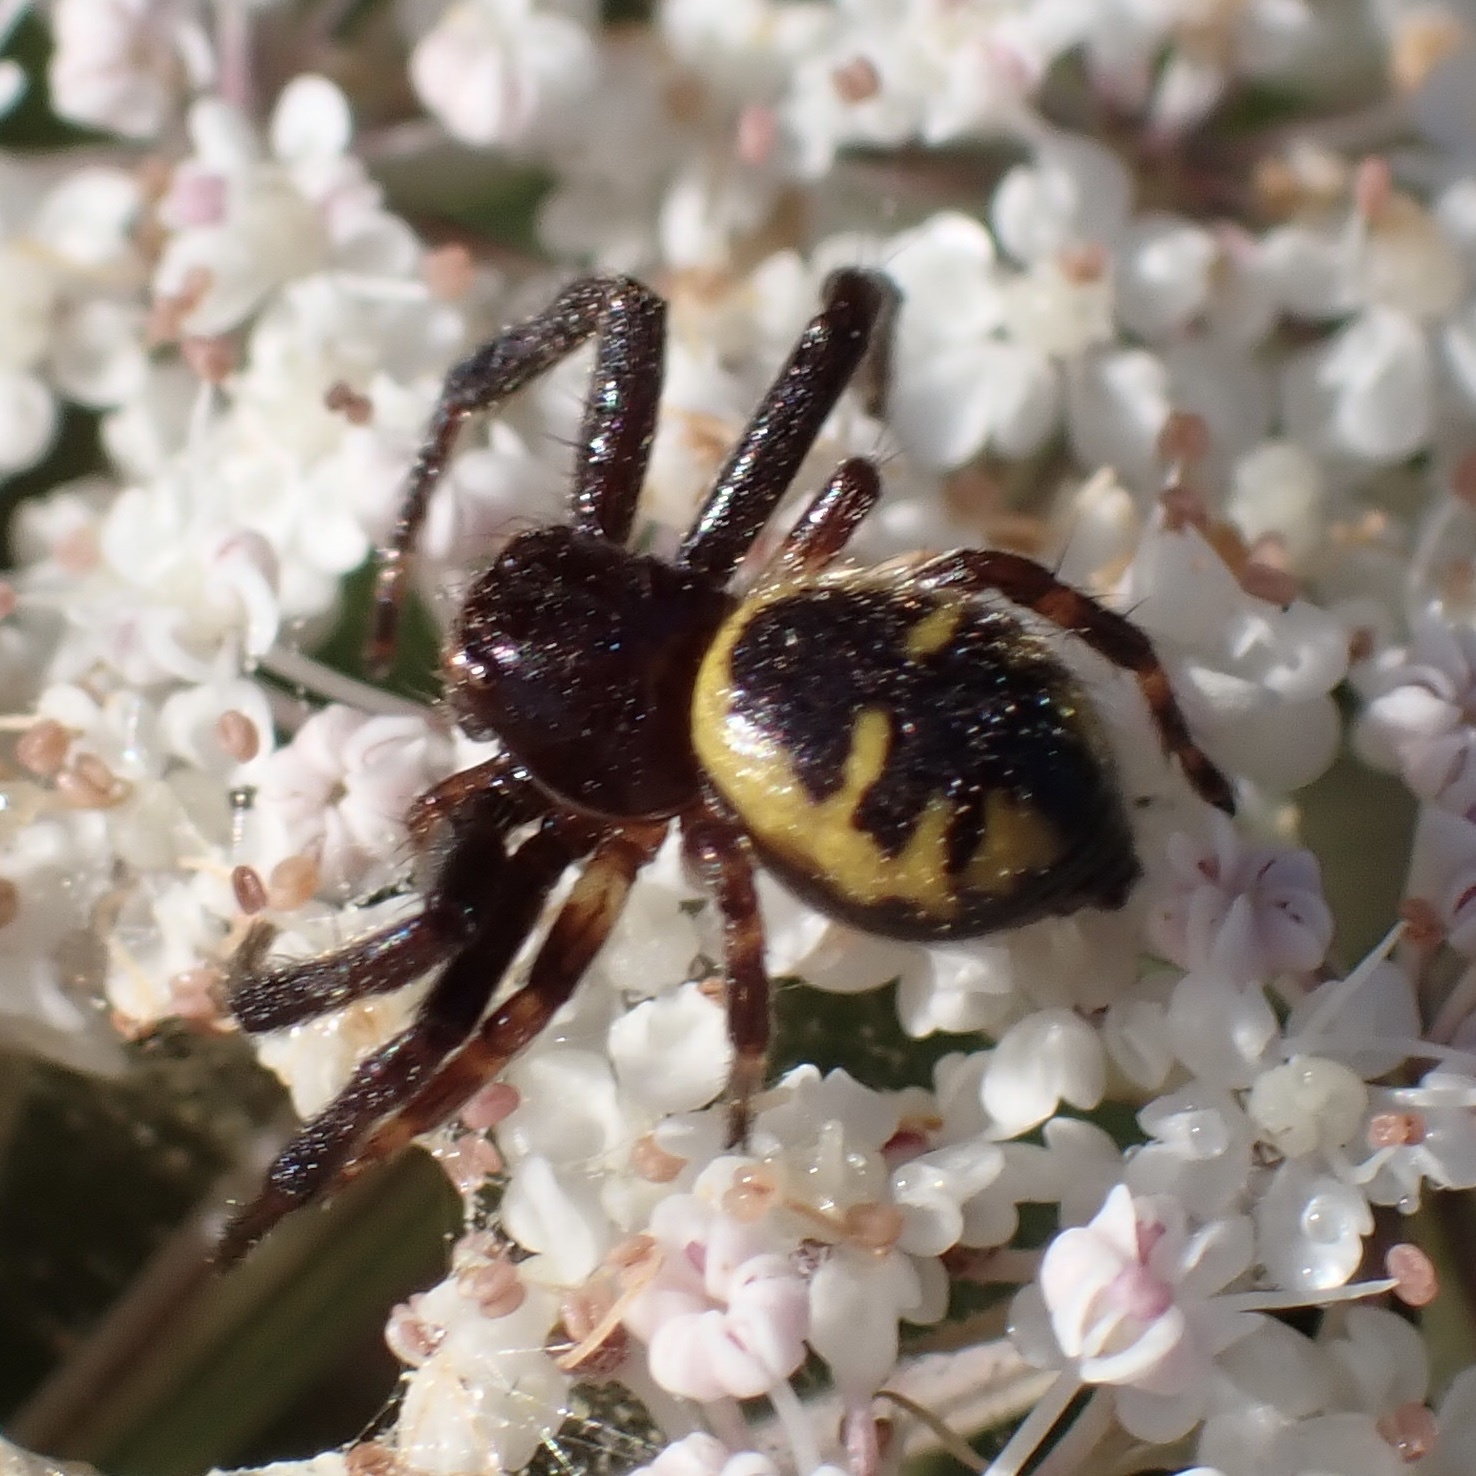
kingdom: Animalia
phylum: Arthropoda
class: Arachnida
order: Araneae
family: Thomisidae
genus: Synema
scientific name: Synema globosum
